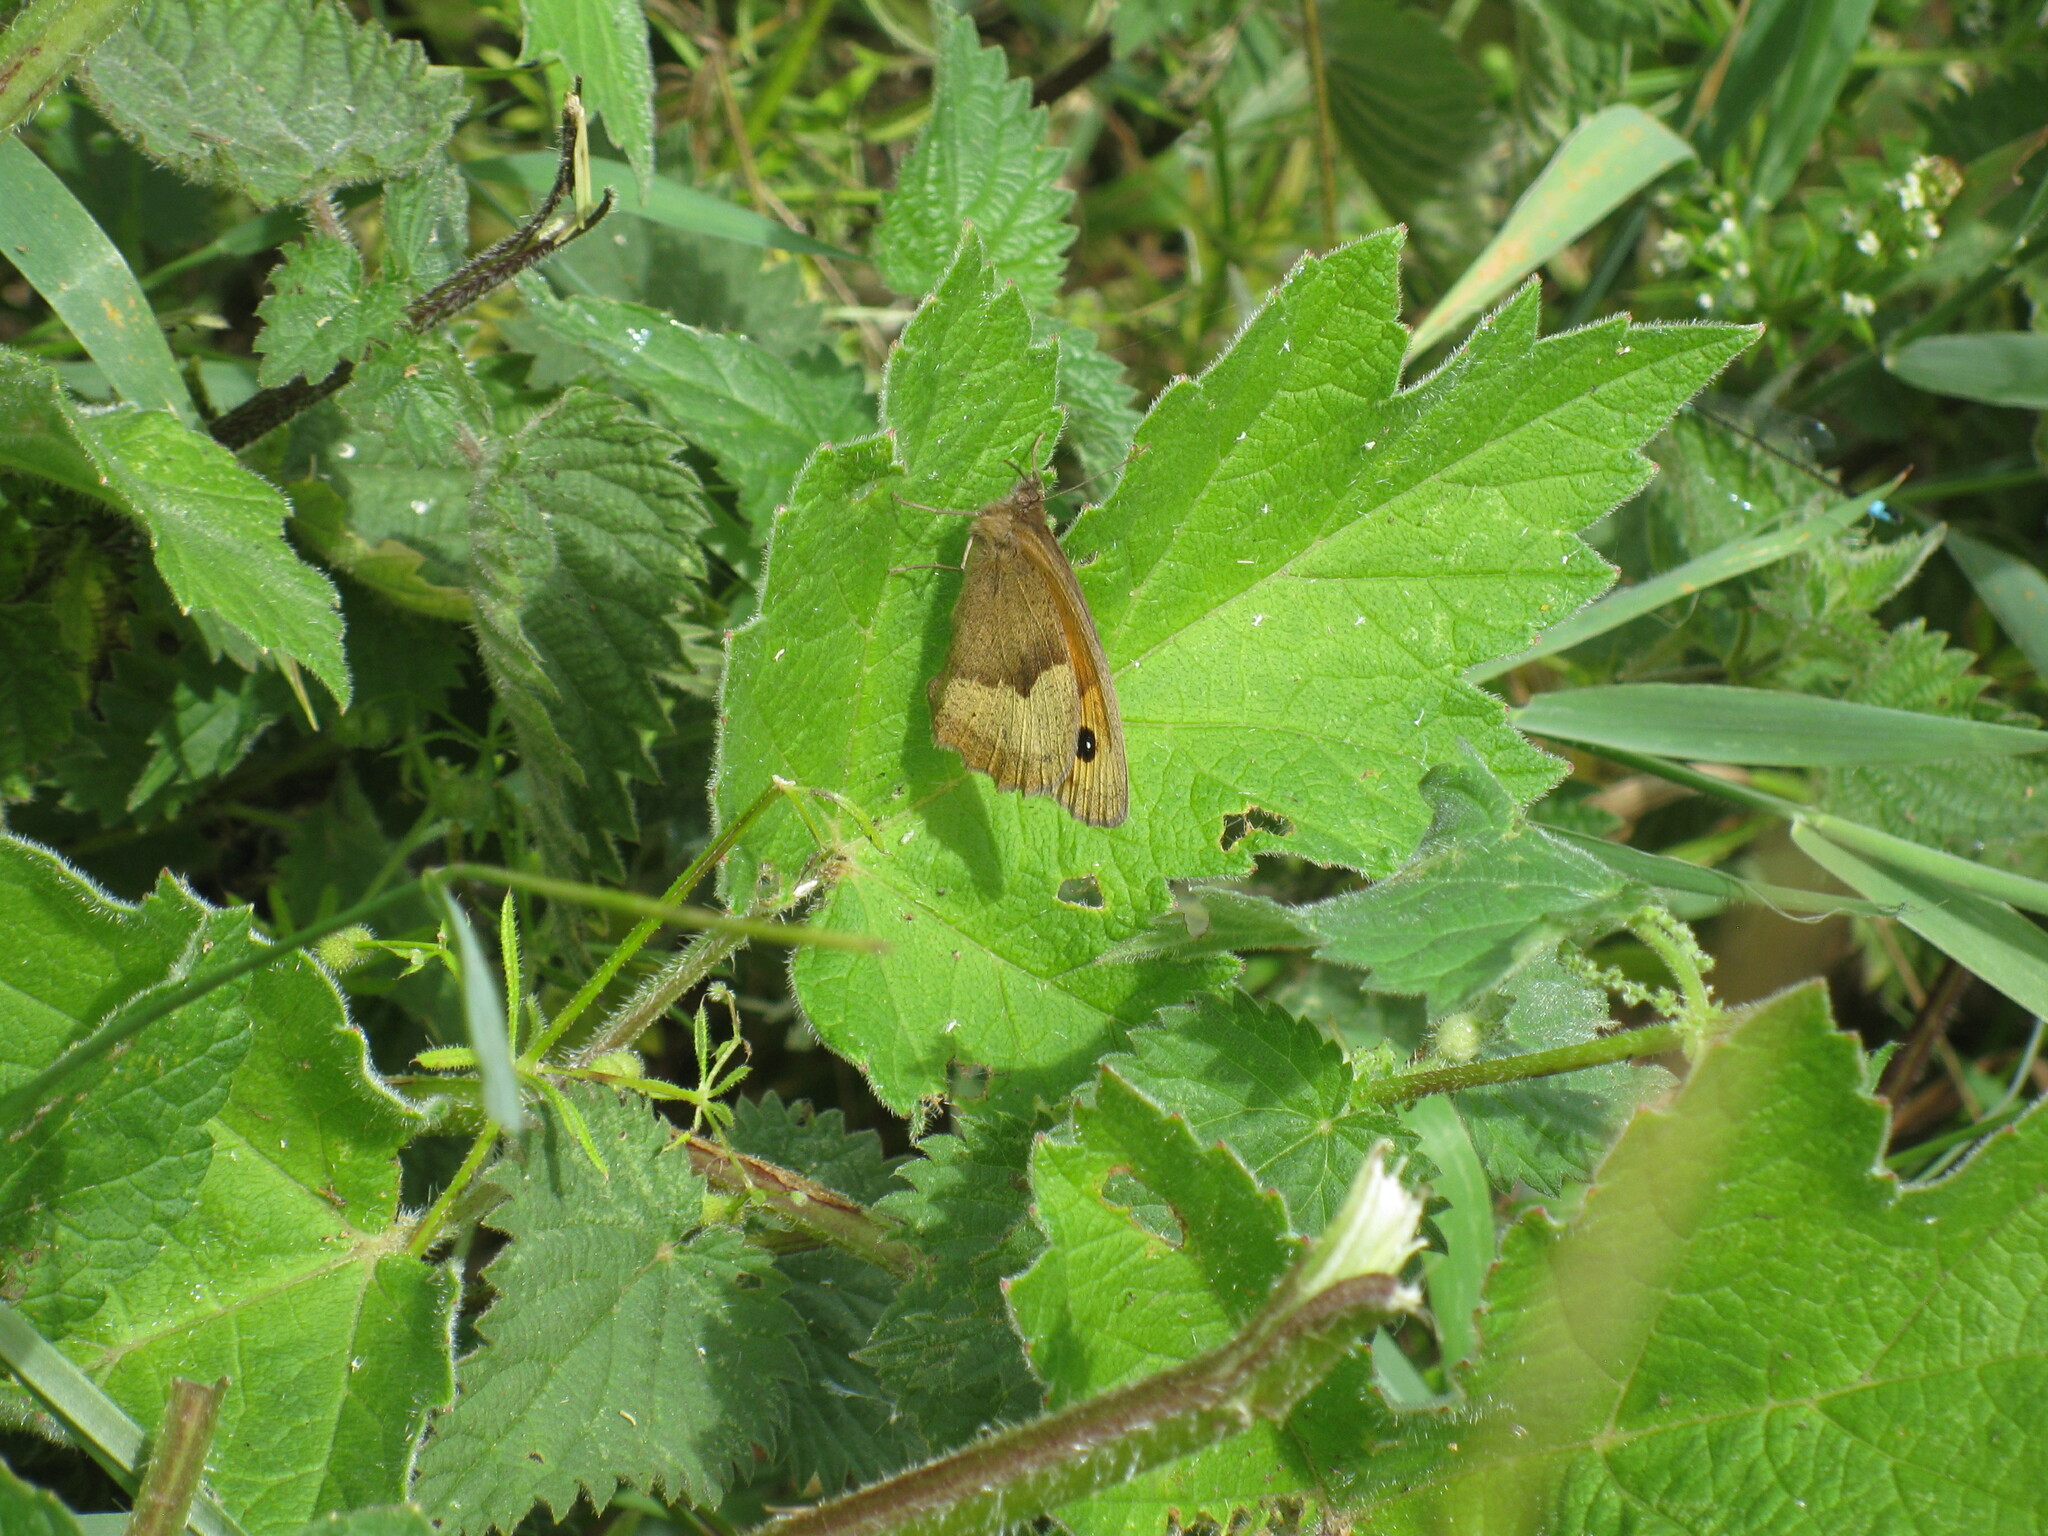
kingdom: Animalia
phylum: Arthropoda
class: Insecta
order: Lepidoptera
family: Nymphalidae
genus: Maniola
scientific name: Maniola jurtina
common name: Meadow brown
